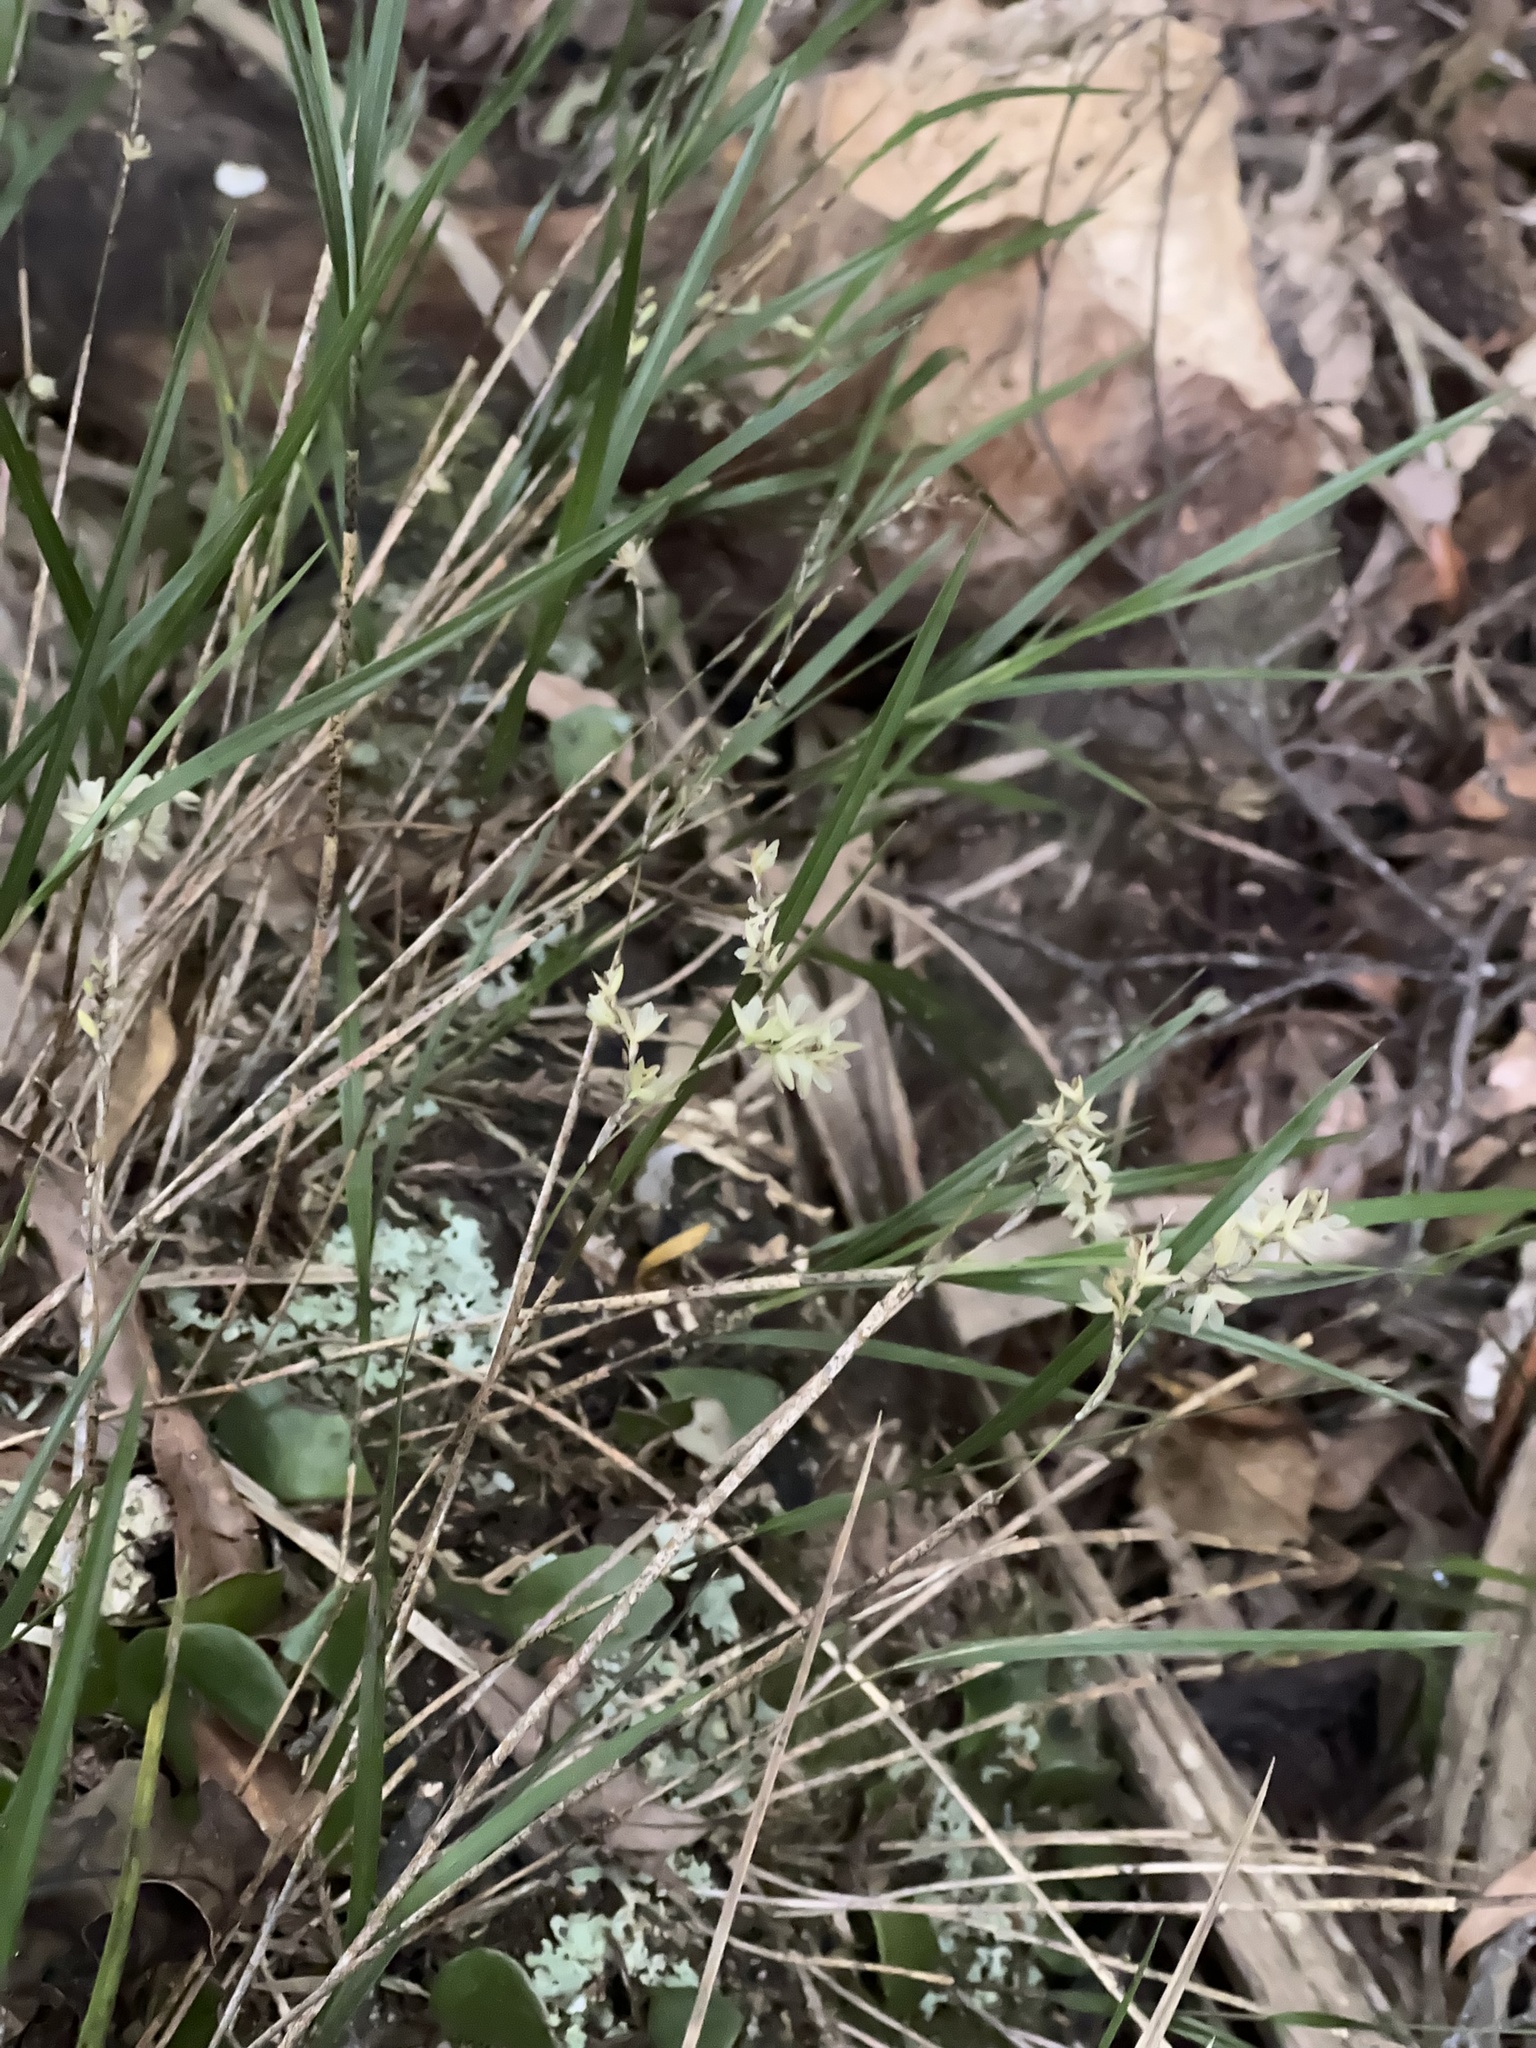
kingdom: Plantae
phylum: Tracheophyta
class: Liliopsida
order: Asparagales
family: Orchidaceae
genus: Earina
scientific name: Earina mucronata
